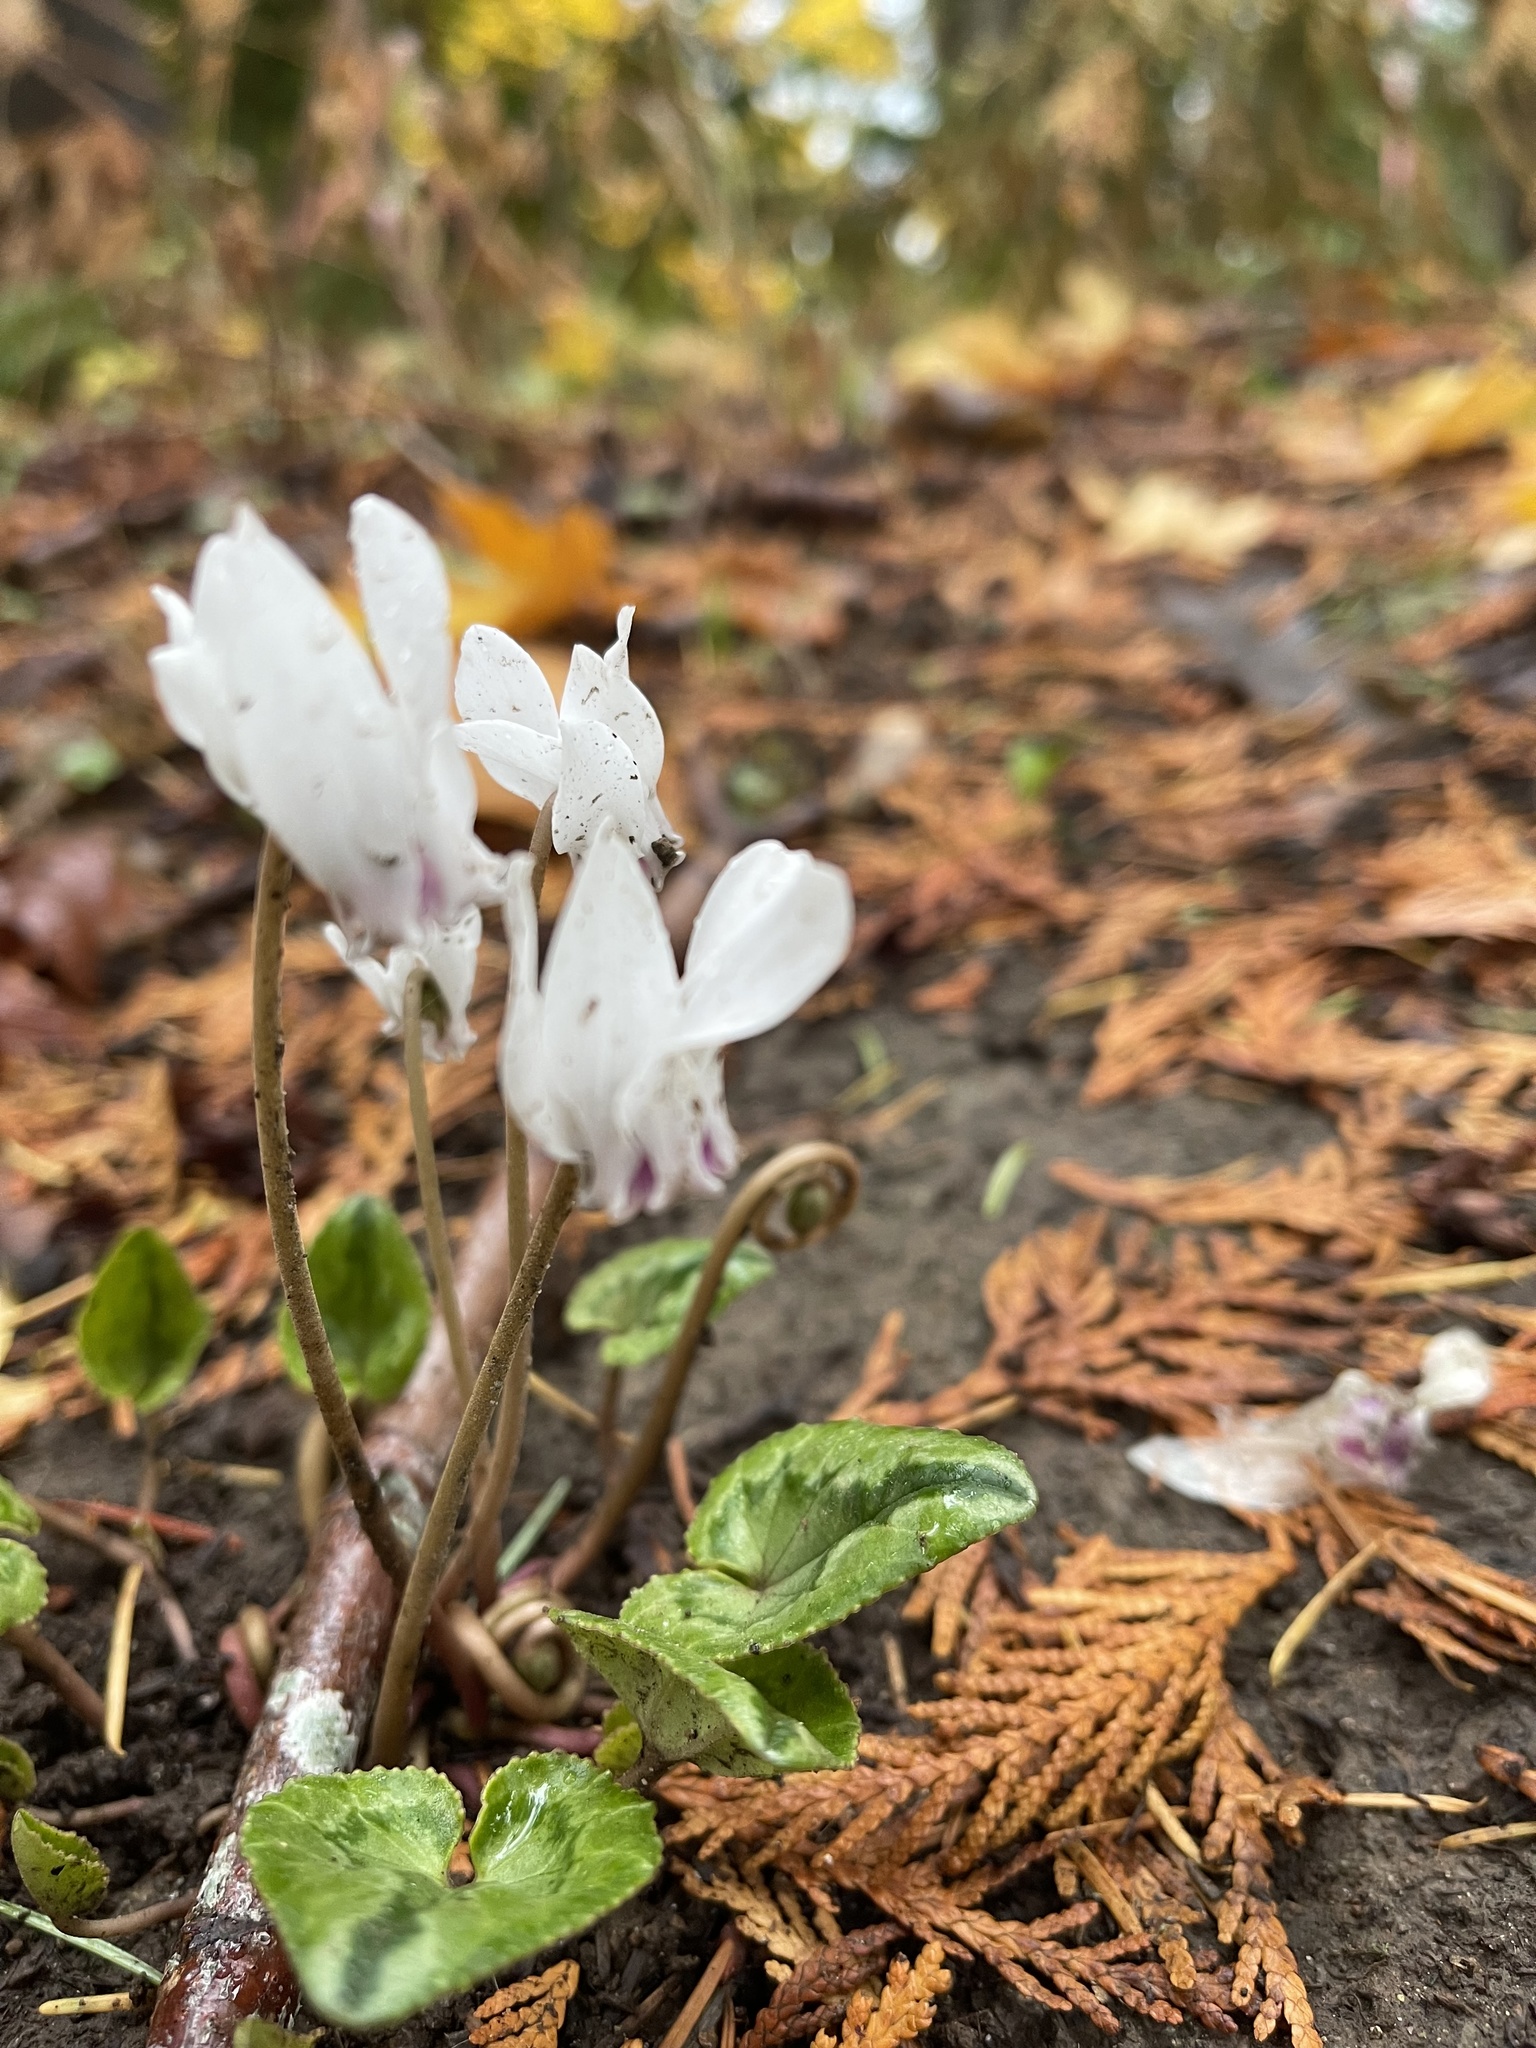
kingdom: Plantae
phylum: Tracheophyta
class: Magnoliopsida
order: Ericales
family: Primulaceae
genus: Cyclamen
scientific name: Cyclamen hederifolium
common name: Sowbread
